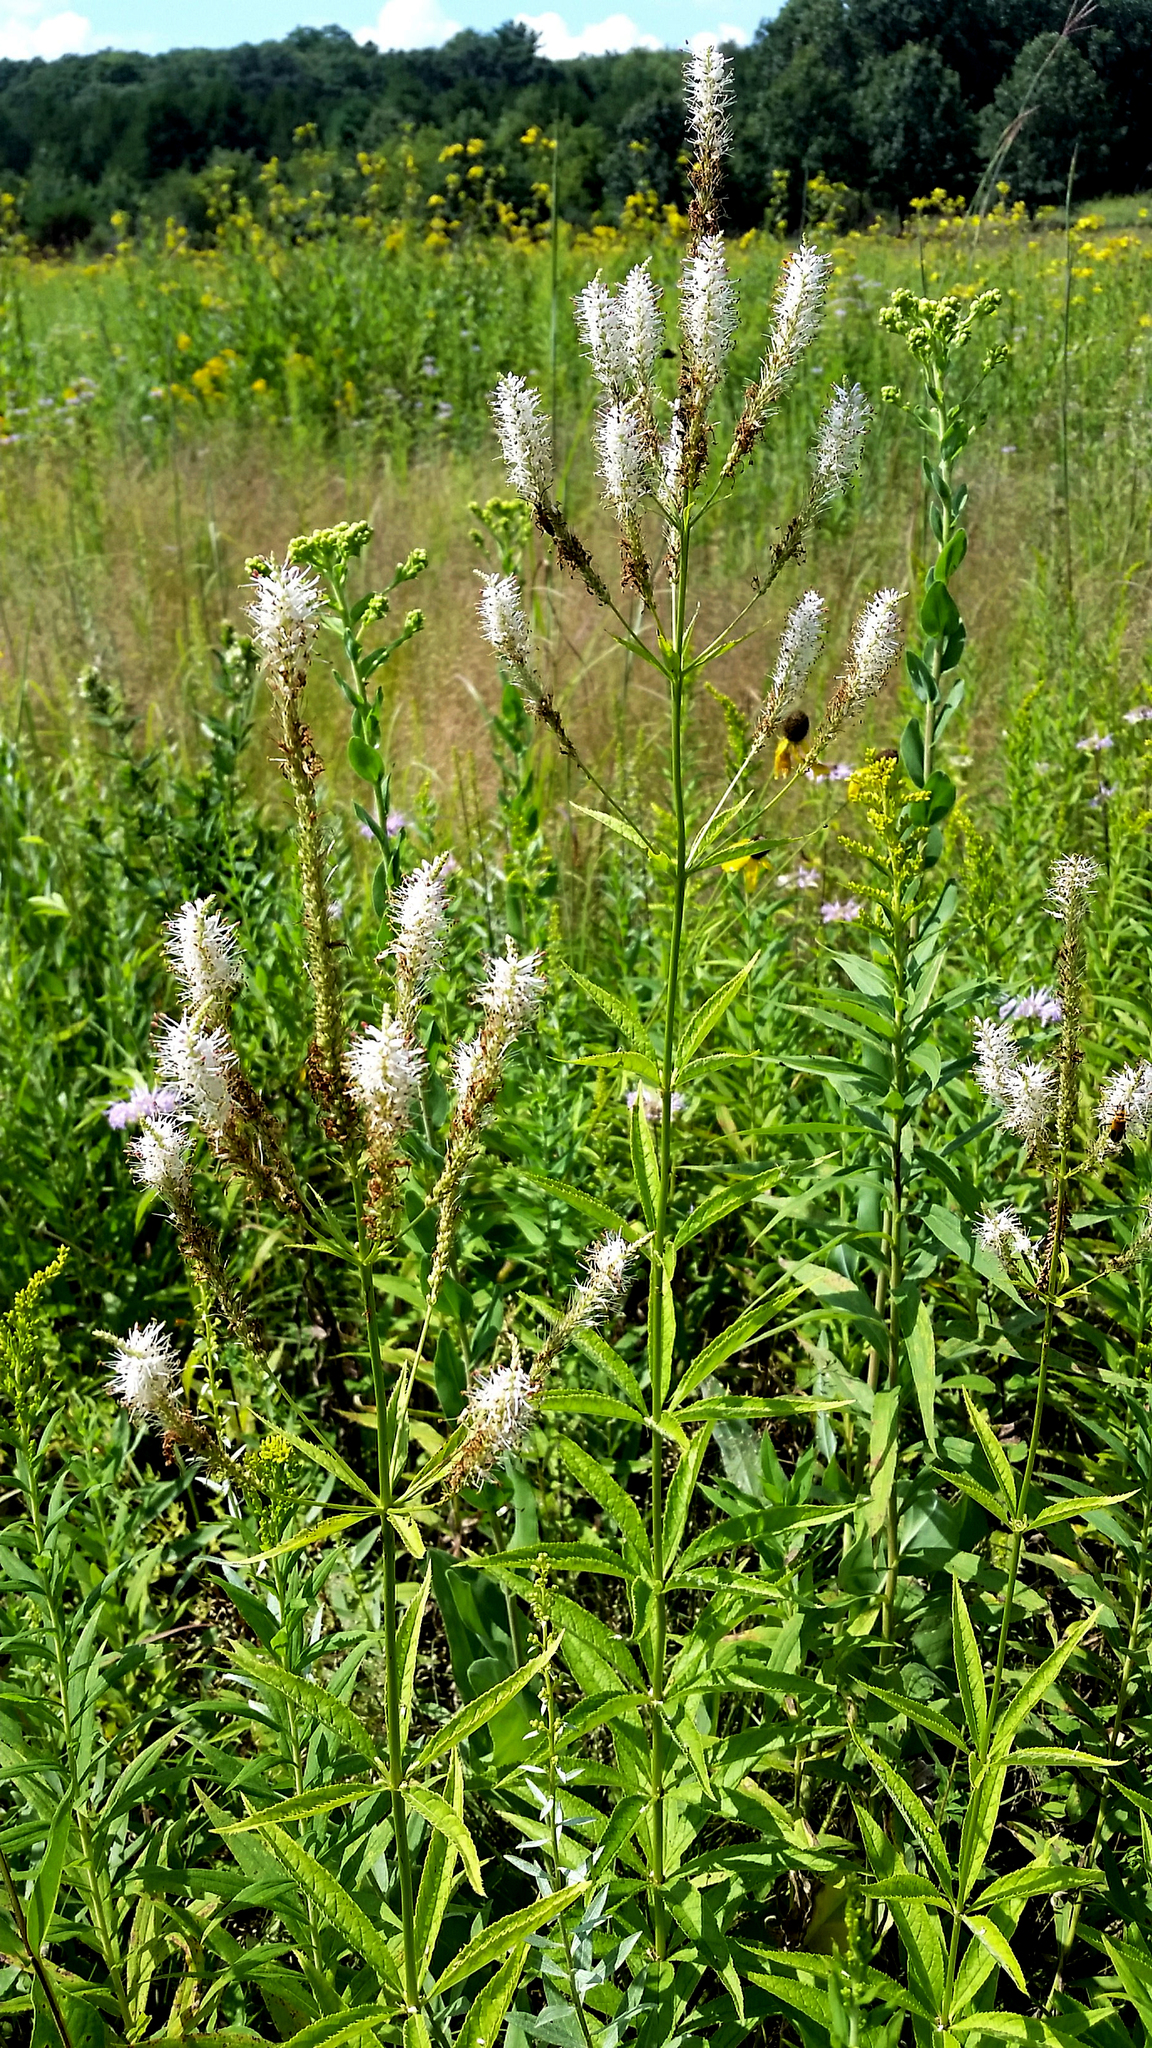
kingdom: Plantae
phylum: Tracheophyta
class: Magnoliopsida
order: Lamiales
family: Plantaginaceae
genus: Veronicastrum
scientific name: Veronicastrum virginicum
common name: Blackroot
